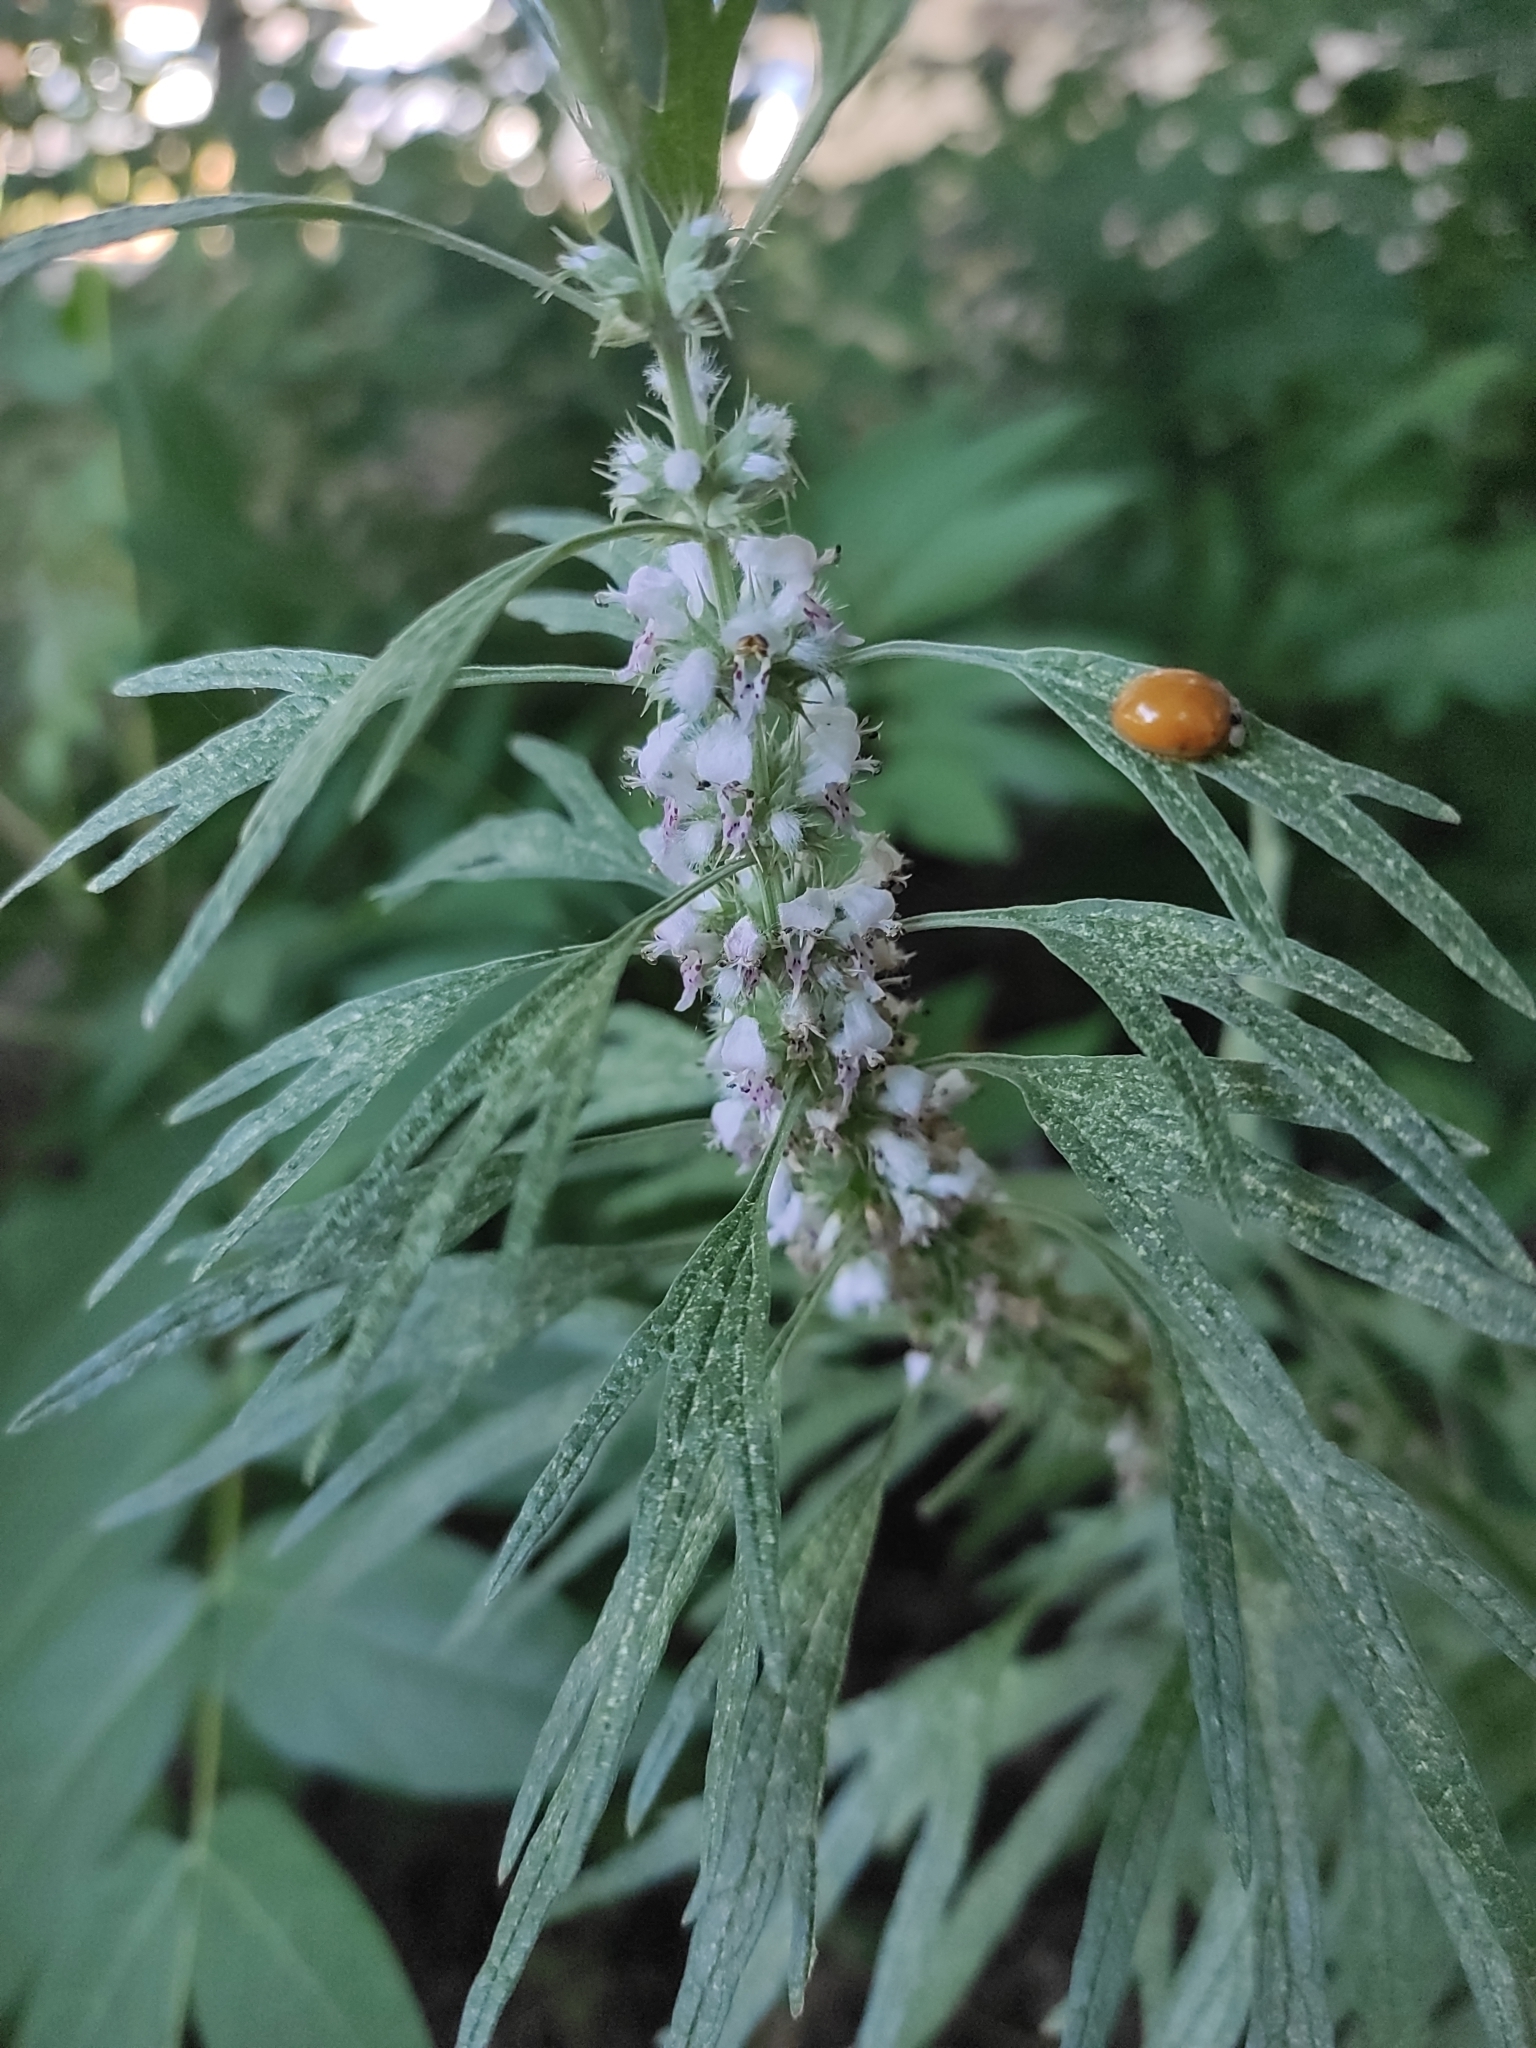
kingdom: Plantae
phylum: Tracheophyta
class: Magnoliopsida
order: Lamiales
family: Lamiaceae
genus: Leonurus
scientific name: Leonurus glaucescens
